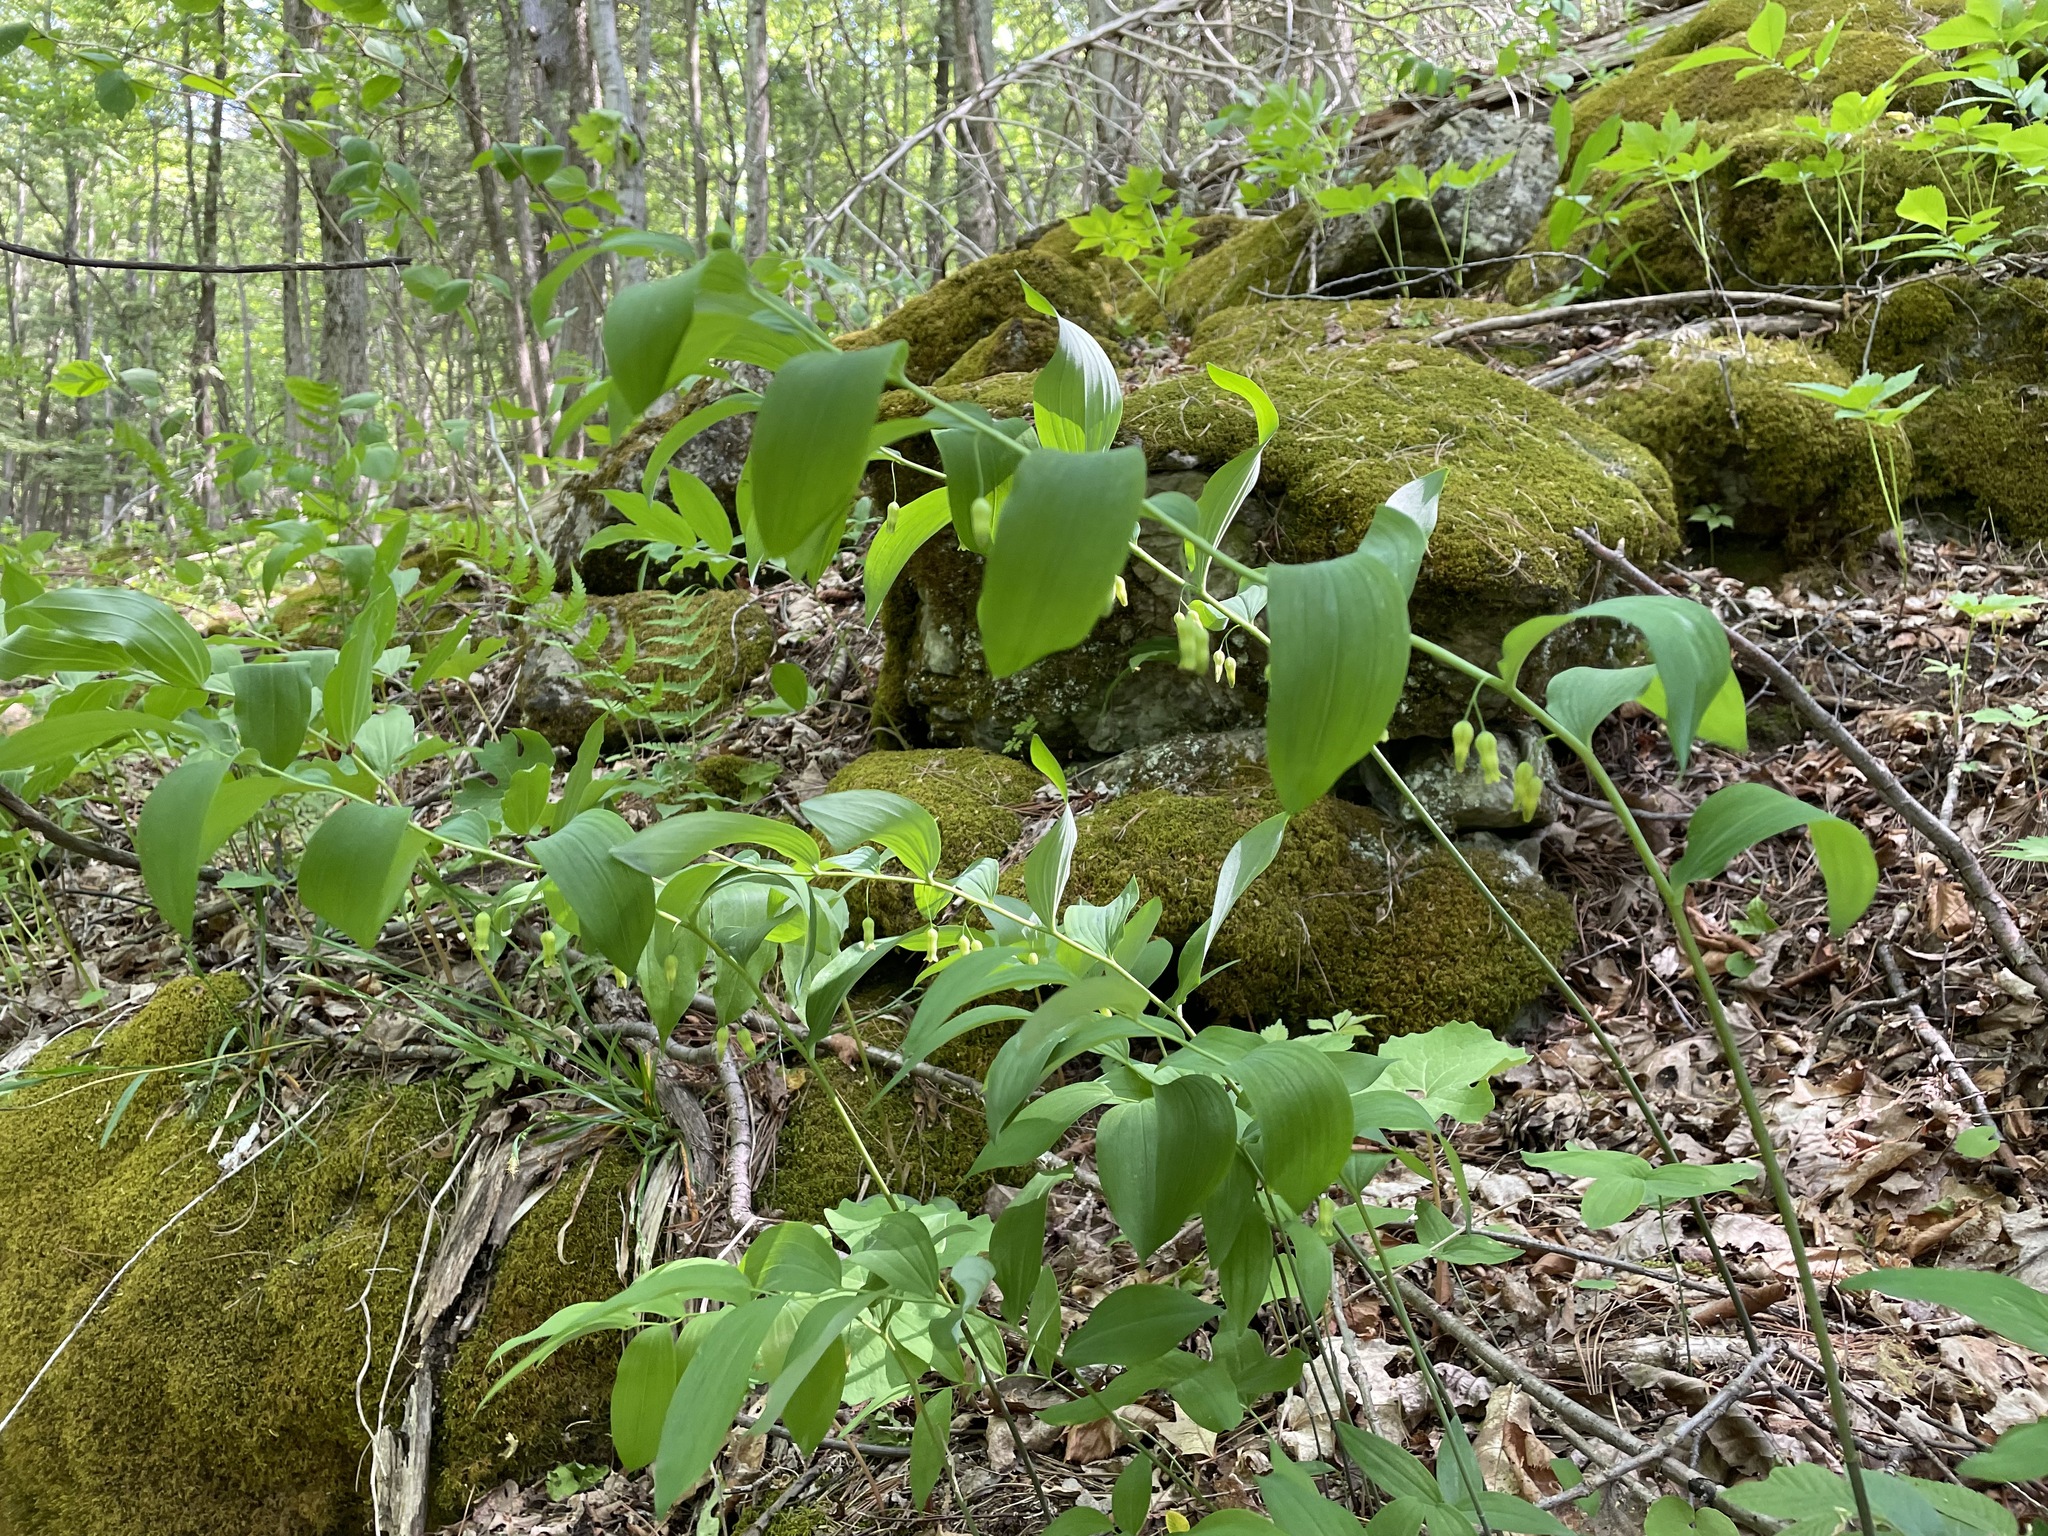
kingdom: Plantae
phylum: Tracheophyta
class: Liliopsida
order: Asparagales
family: Asparagaceae
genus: Polygonatum
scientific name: Polygonatum pubescens
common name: Downy solomon's seal
